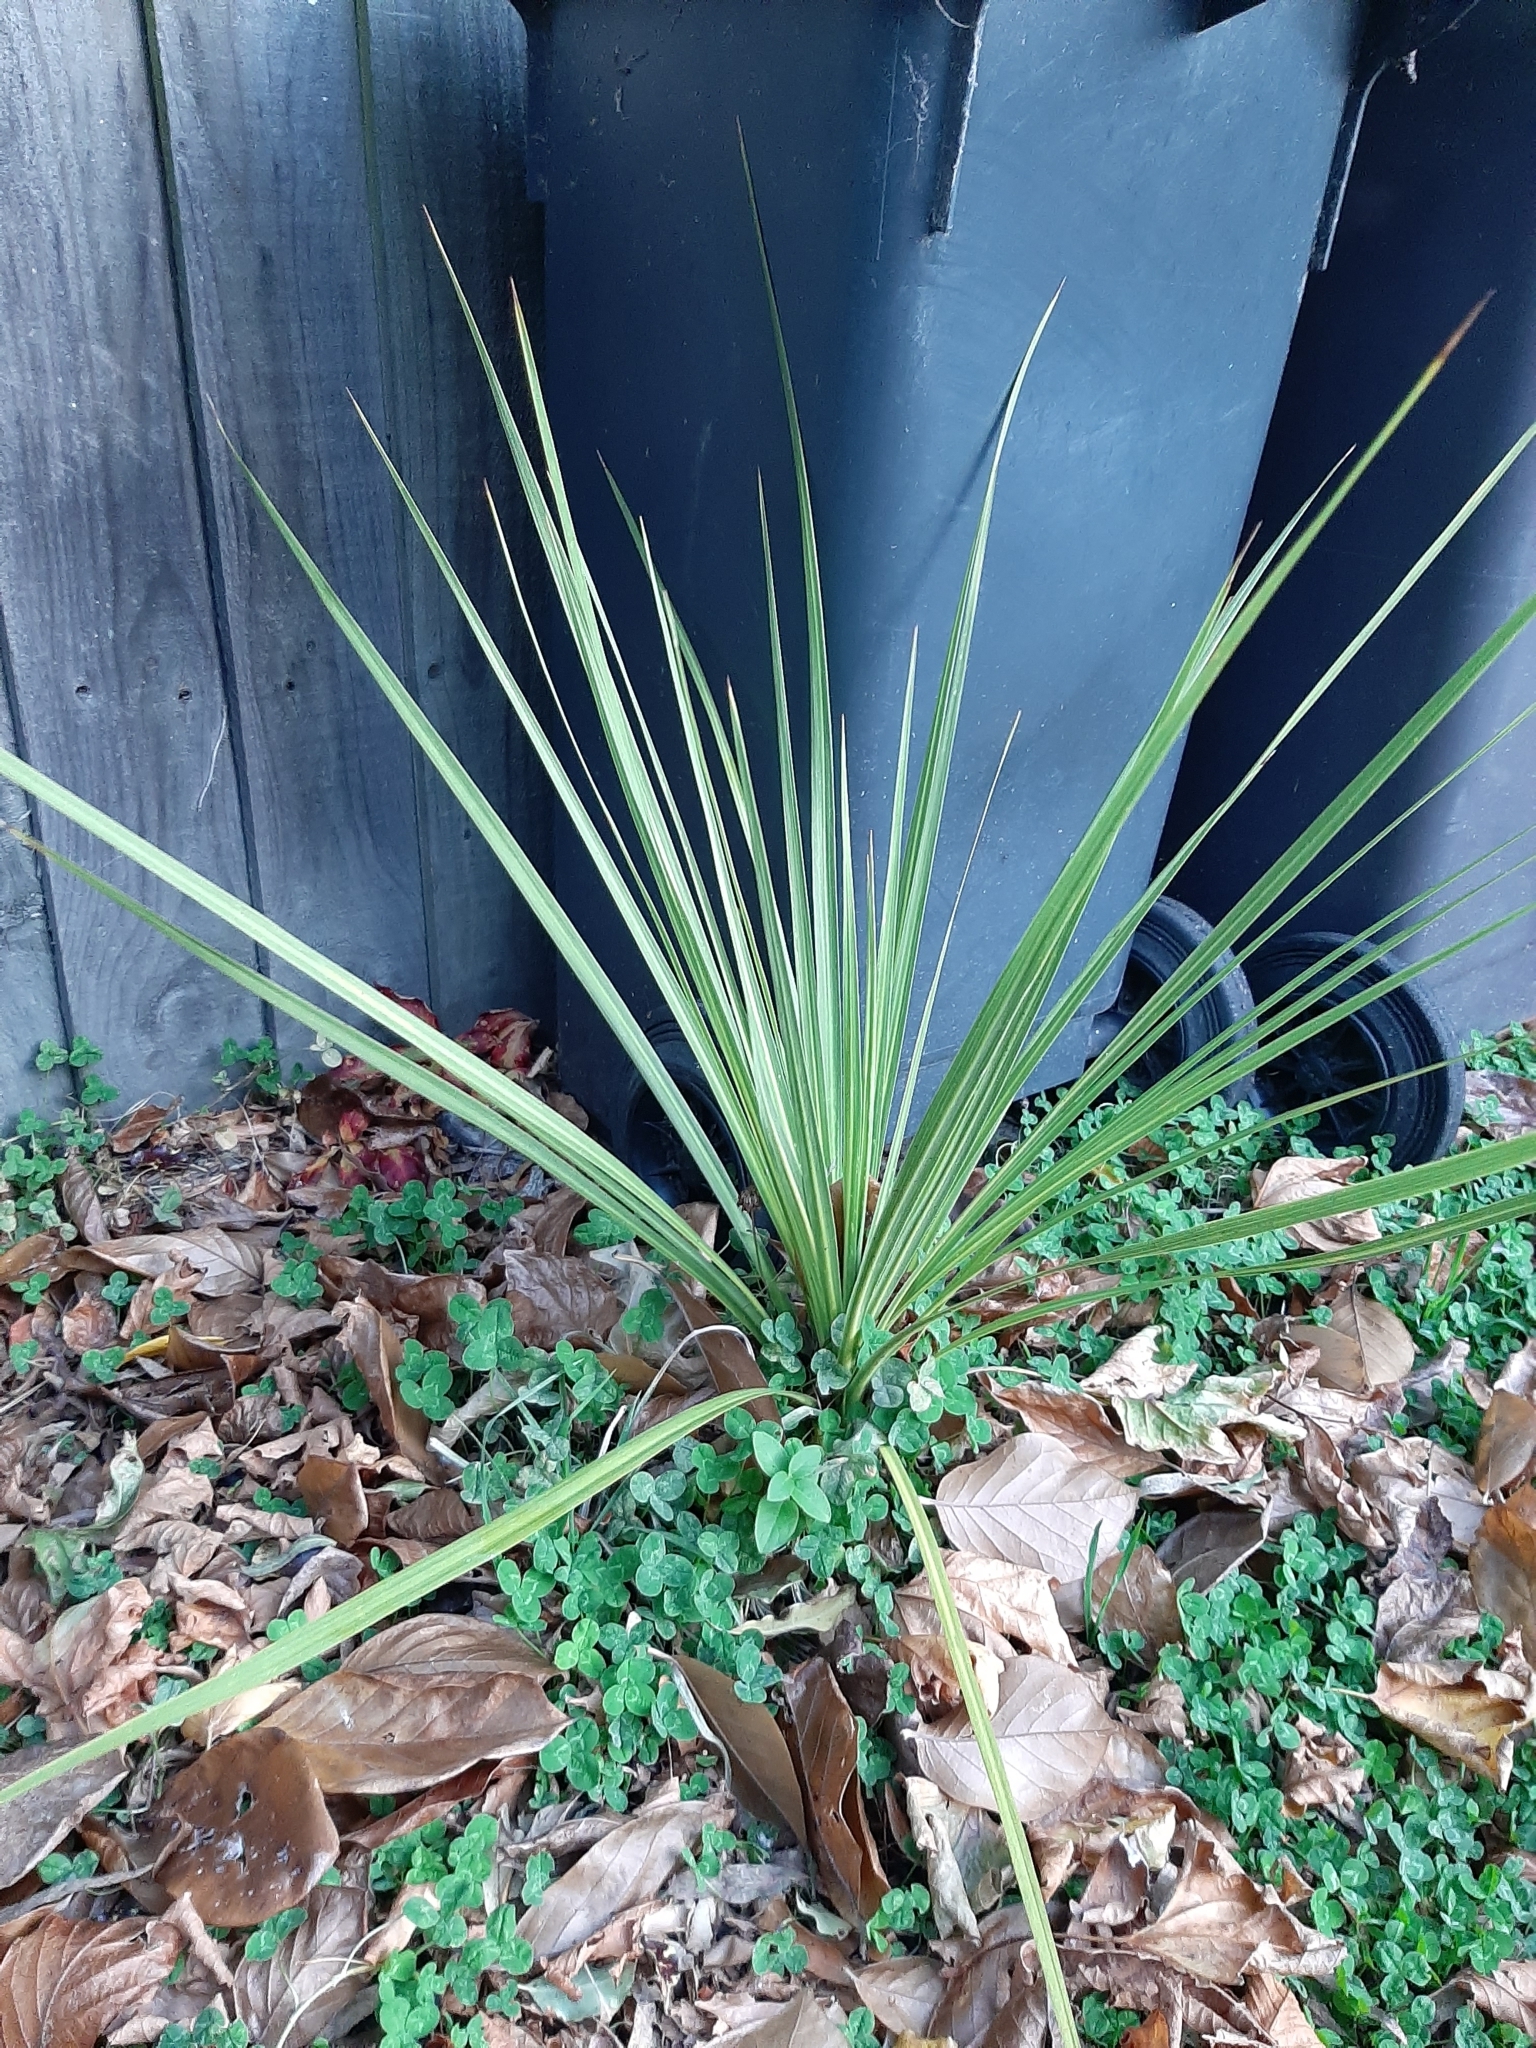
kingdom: Plantae
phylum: Tracheophyta
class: Liliopsida
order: Asparagales
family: Asparagaceae
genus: Cordyline
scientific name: Cordyline australis
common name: Cabbage-palm
